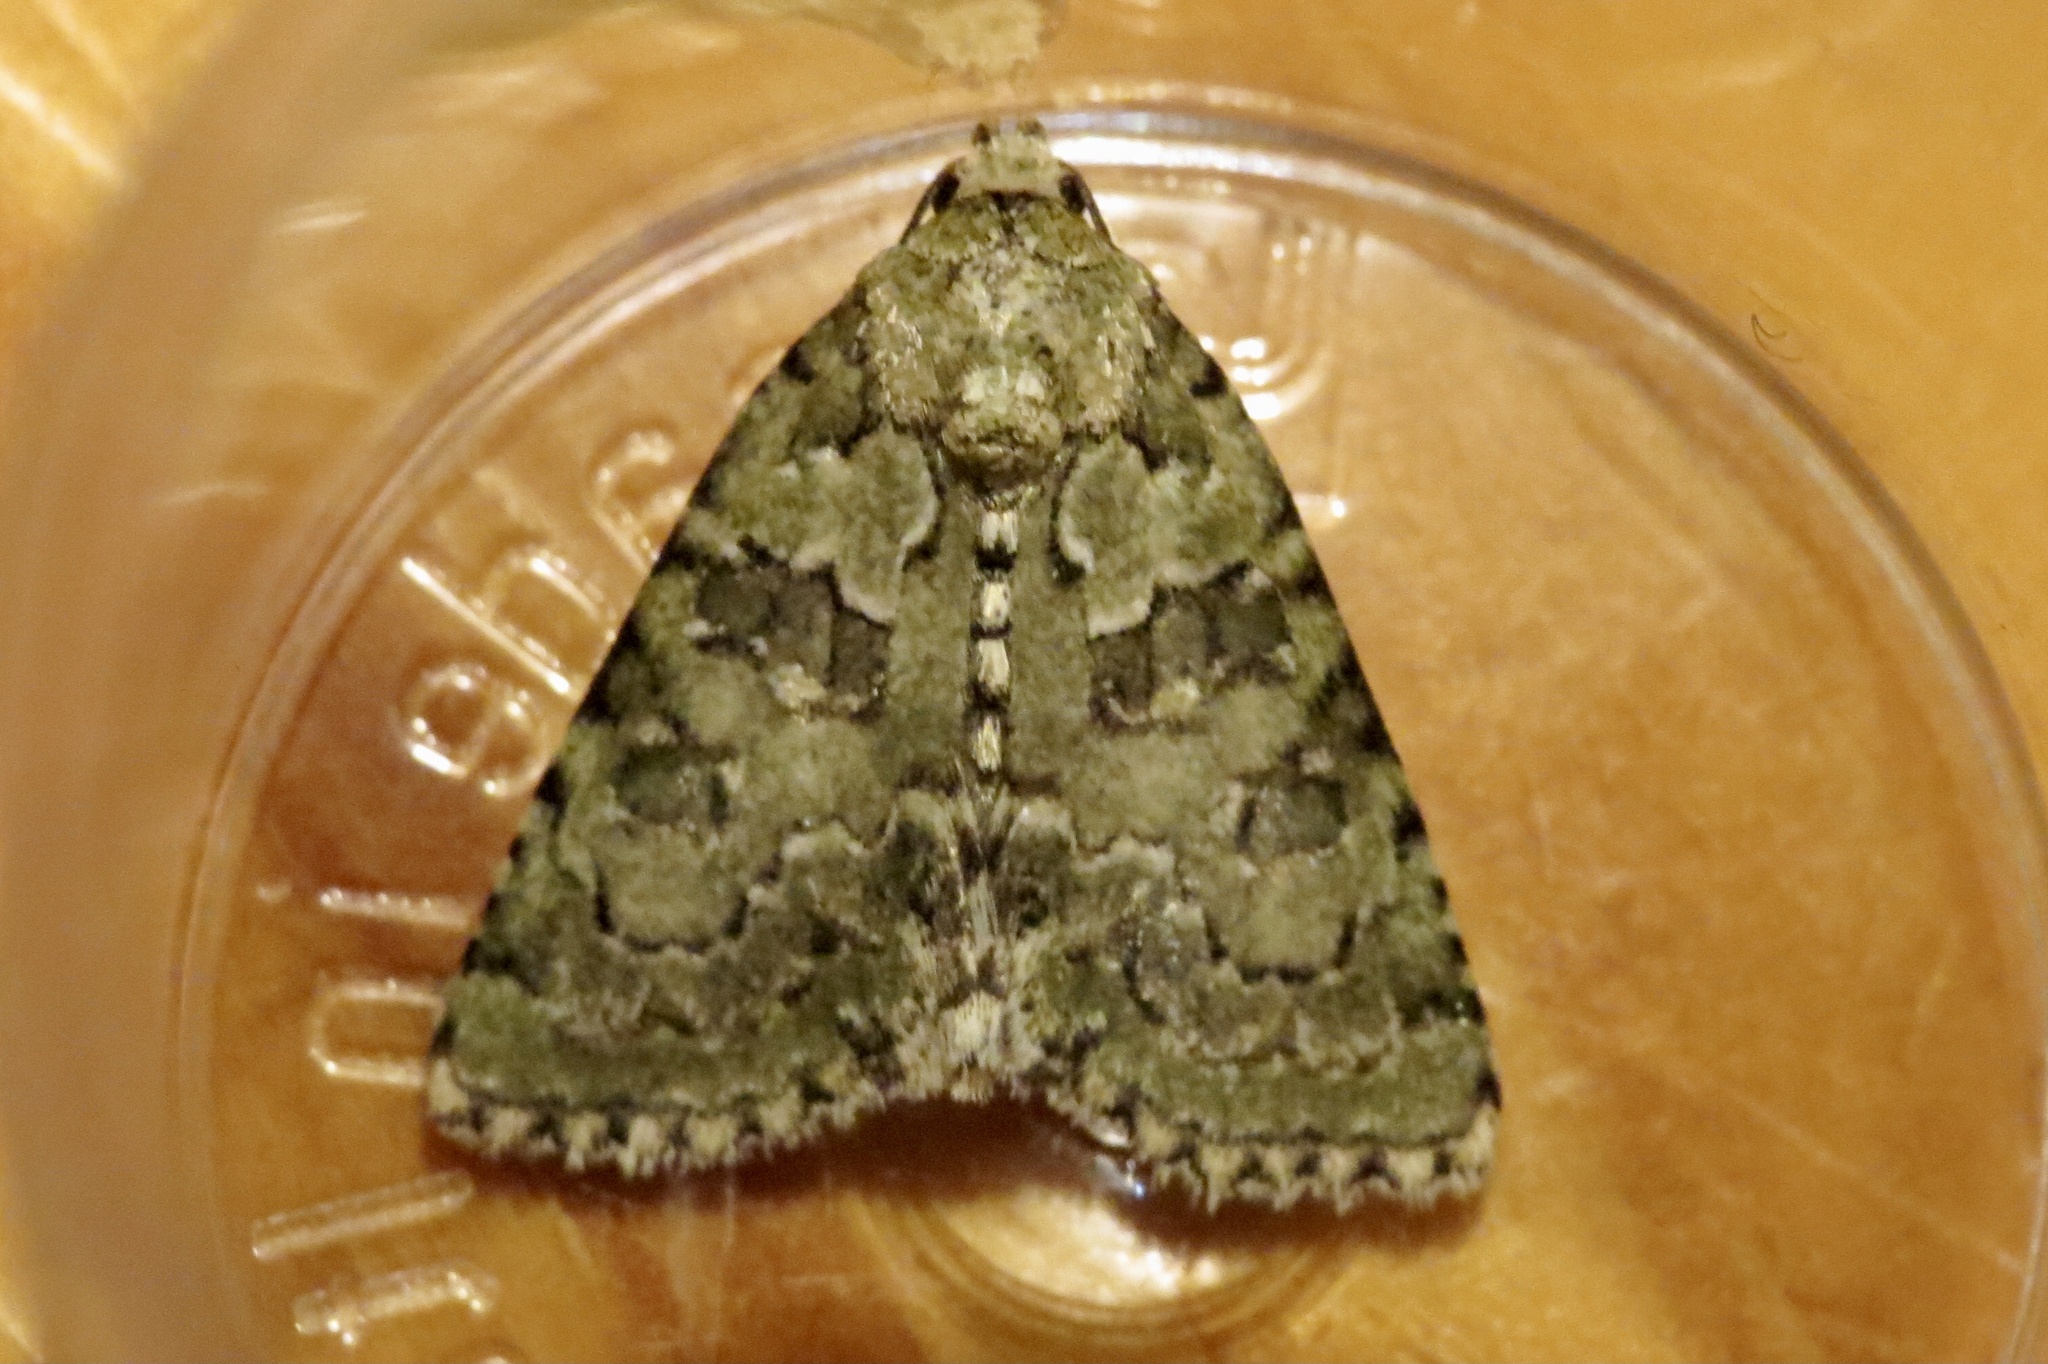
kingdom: Animalia
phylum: Arthropoda
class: Insecta
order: Lepidoptera
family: Noctuidae
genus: Nyctobrya
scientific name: Nyctobrya muralis
